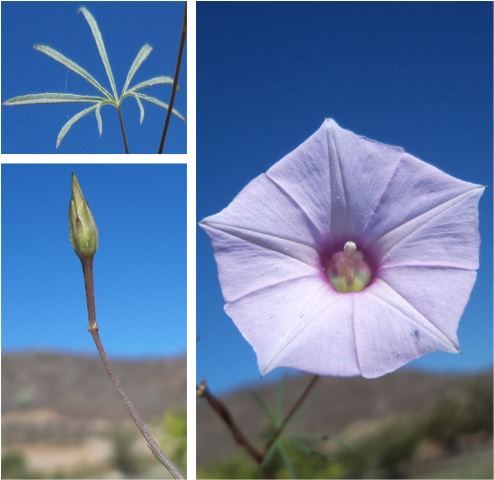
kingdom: Plantae
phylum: Tracheophyta
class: Magnoliopsida
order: Solanales
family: Convolvulaceae
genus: Ipomoea
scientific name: Ipomoea ternifolia
